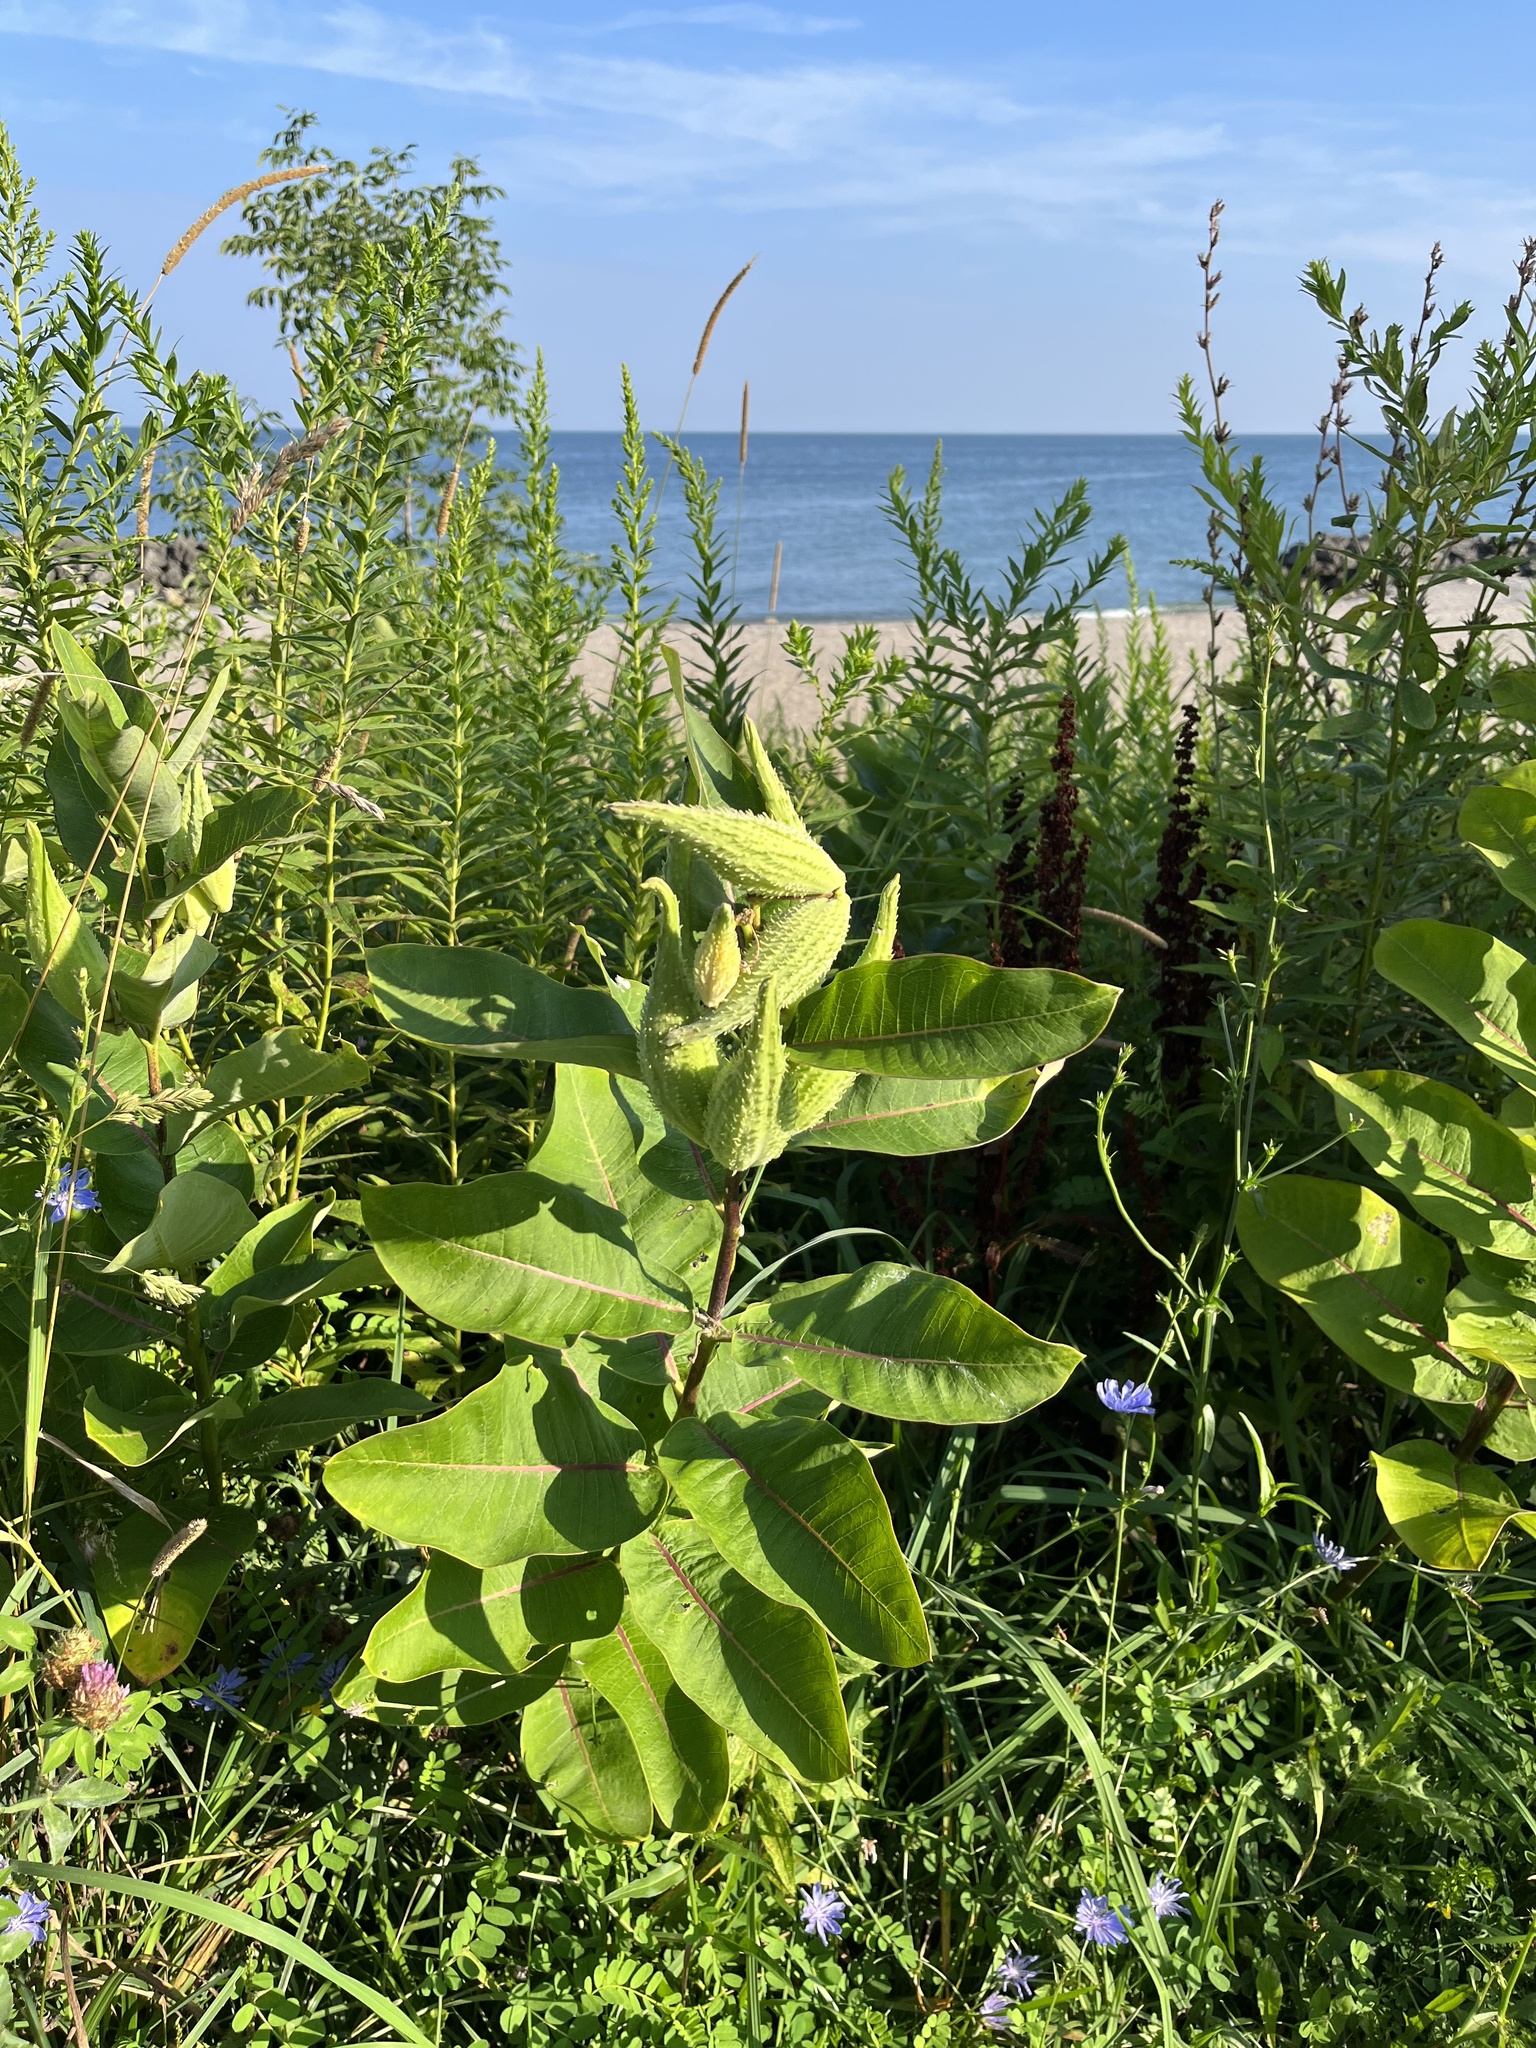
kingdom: Plantae
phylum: Tracheophyta
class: Magnoliopsida
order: Gentianales
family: Apocynaceae
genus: Asclepias
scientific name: Asclepias syriaca
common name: Common milkweed
